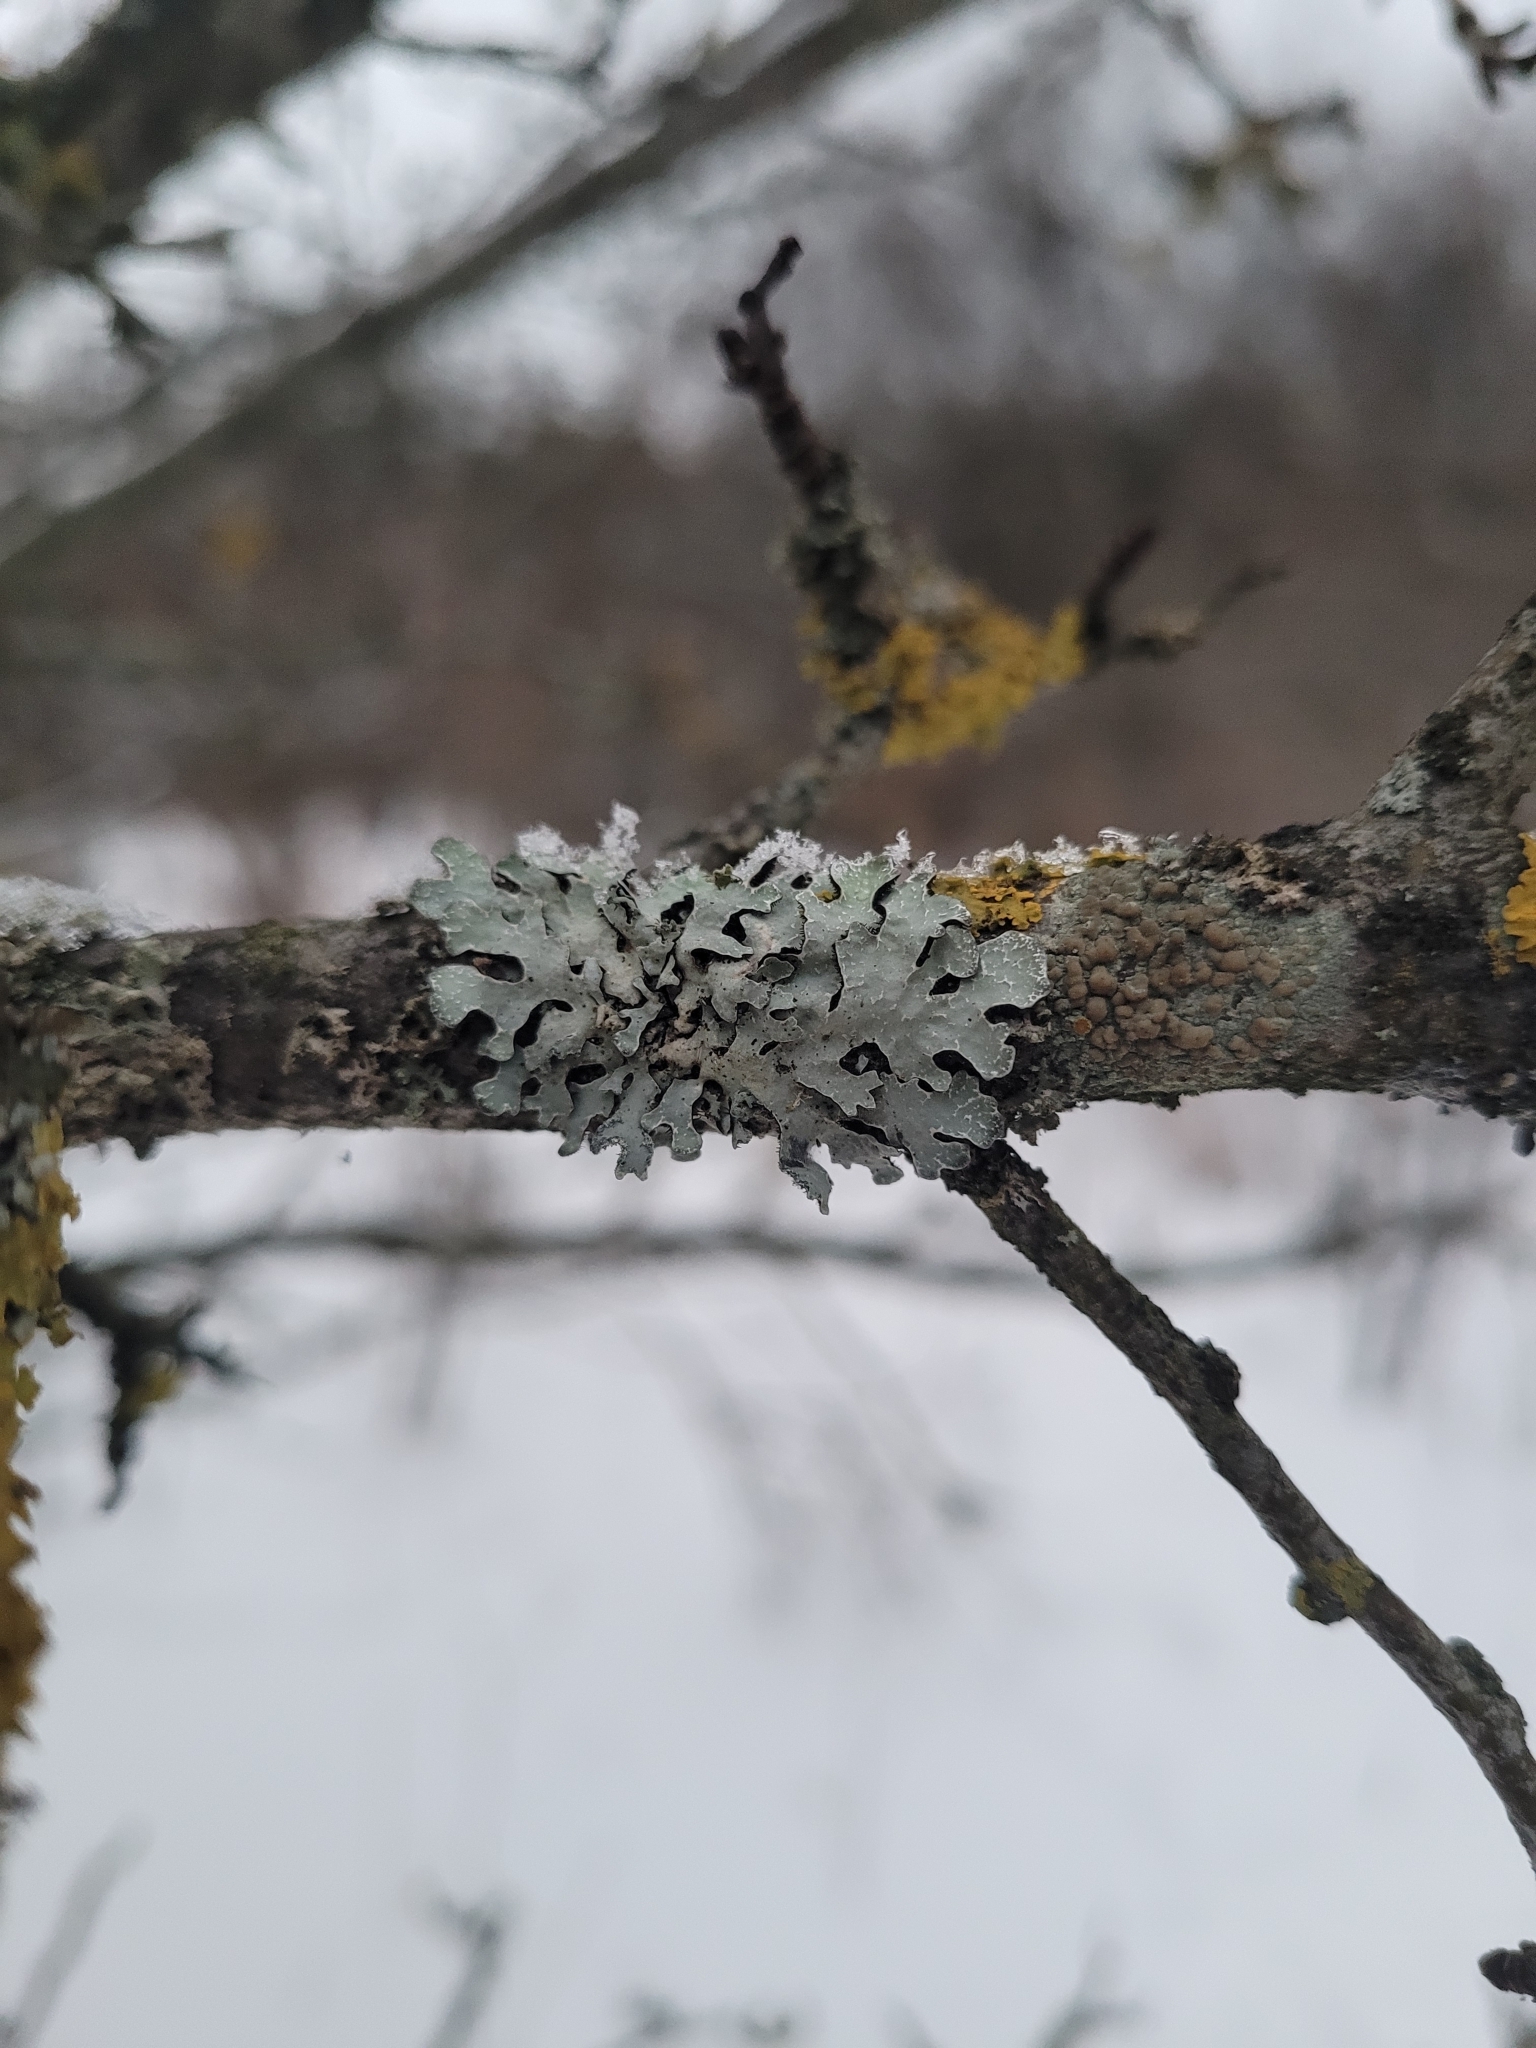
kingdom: Fungi
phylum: Ascomycota
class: Lecanoromycetes
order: Lecanorales
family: Parmeliaceae
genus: Parmelia
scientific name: Parmelia sulcata
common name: Netted shield lichen
